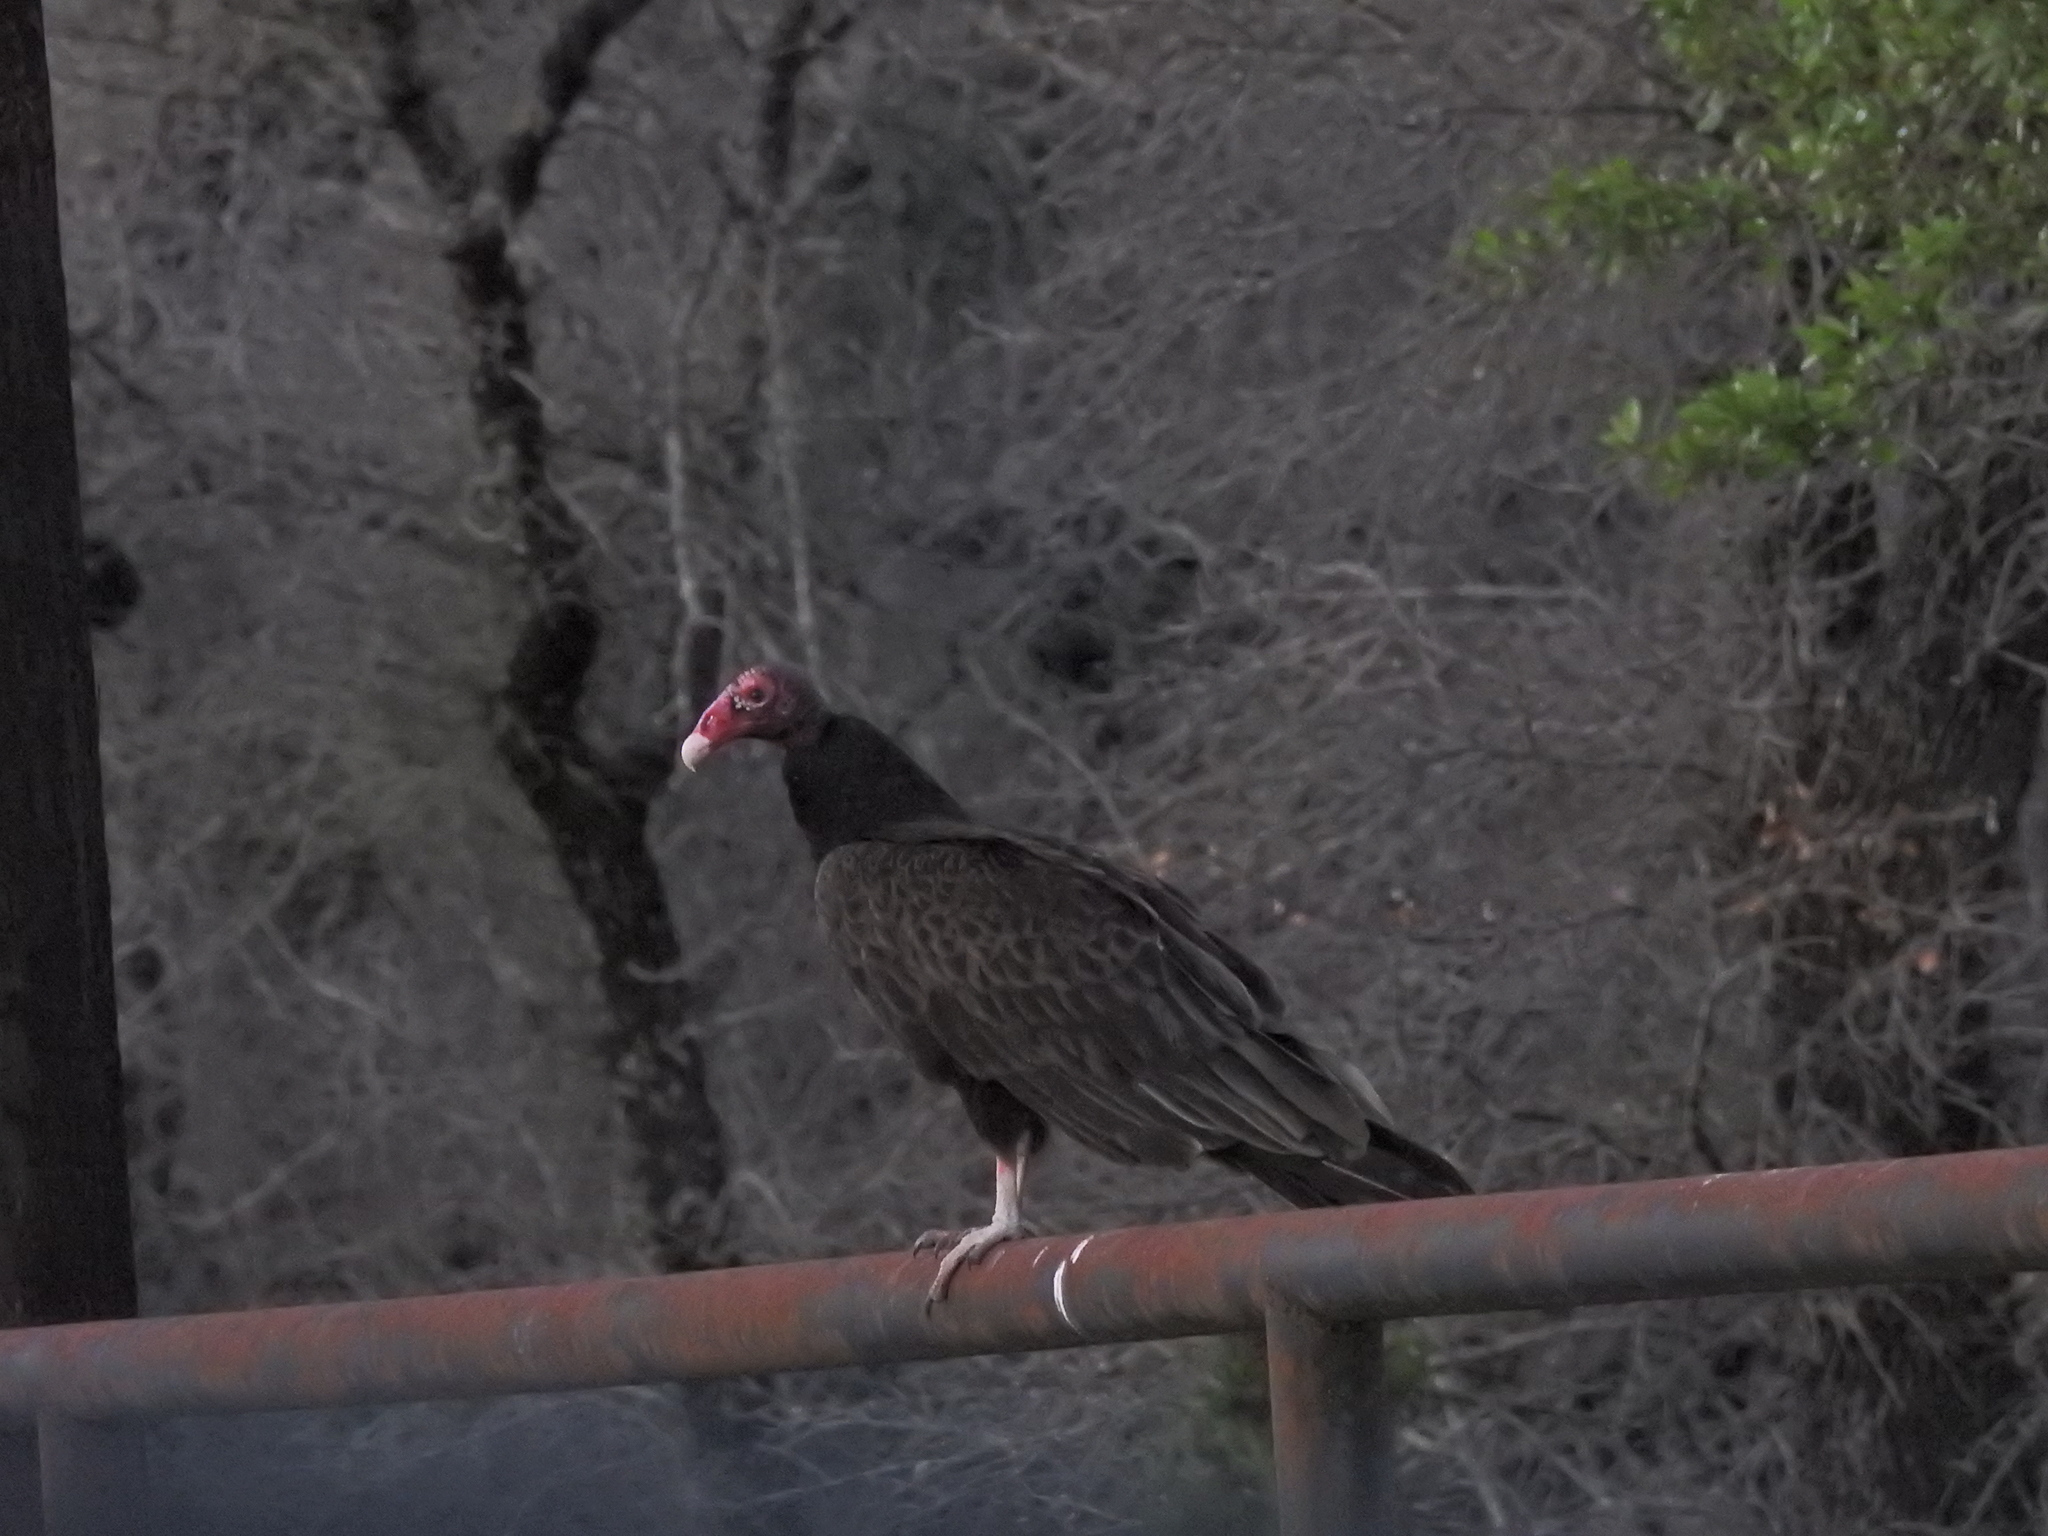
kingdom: Animalia
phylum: Chordata
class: Aves
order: Accipitriformes
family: Cathartidae
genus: Cathartes
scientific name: Cathartes aura
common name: Turkey vulture
